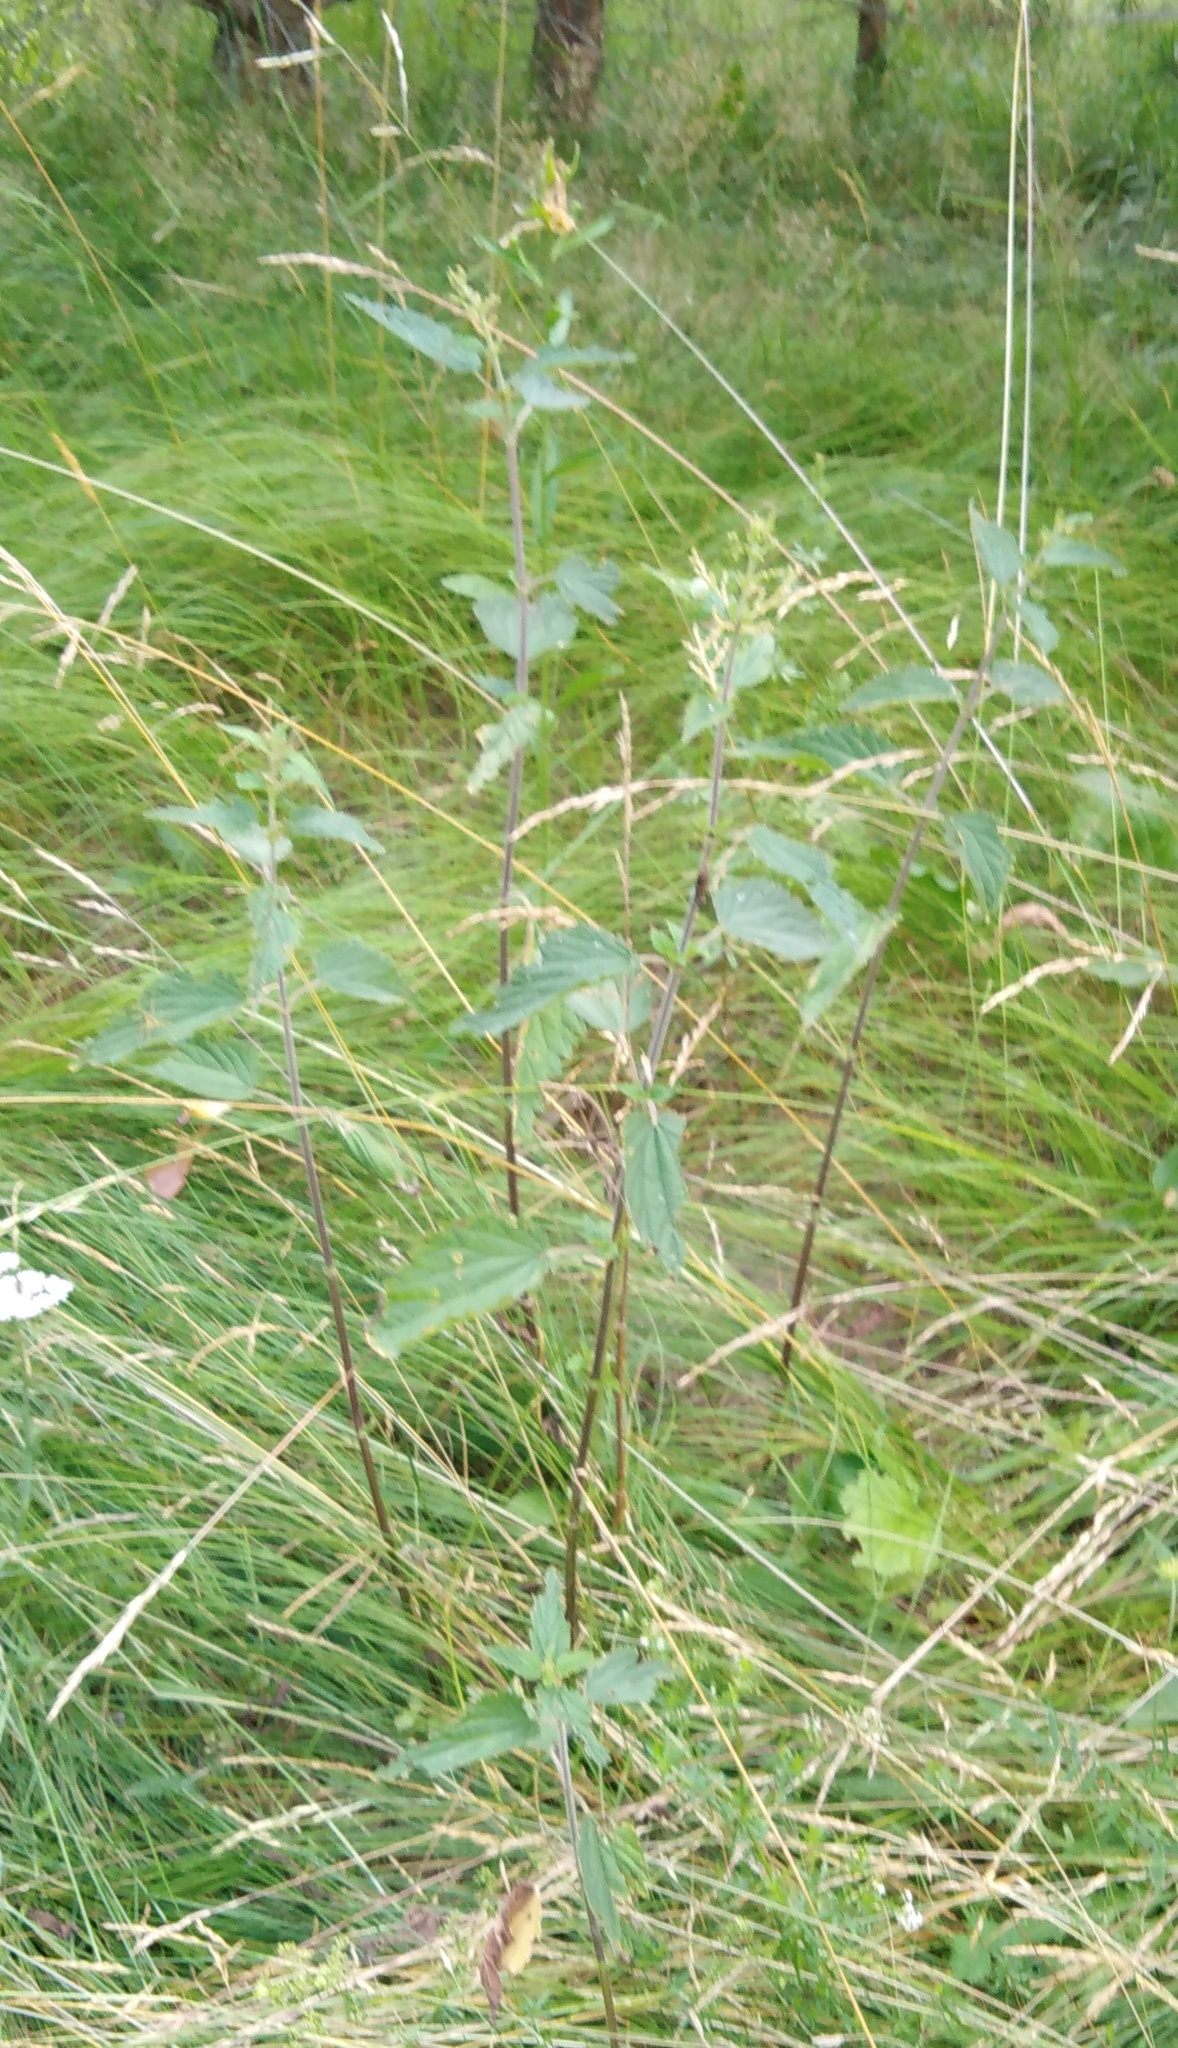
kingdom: Plantae
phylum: Tracheophyta
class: Magnoliopsida
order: Rosales
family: Urticaceae
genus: Urtica
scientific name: Urtica dioica
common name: Common nettle
